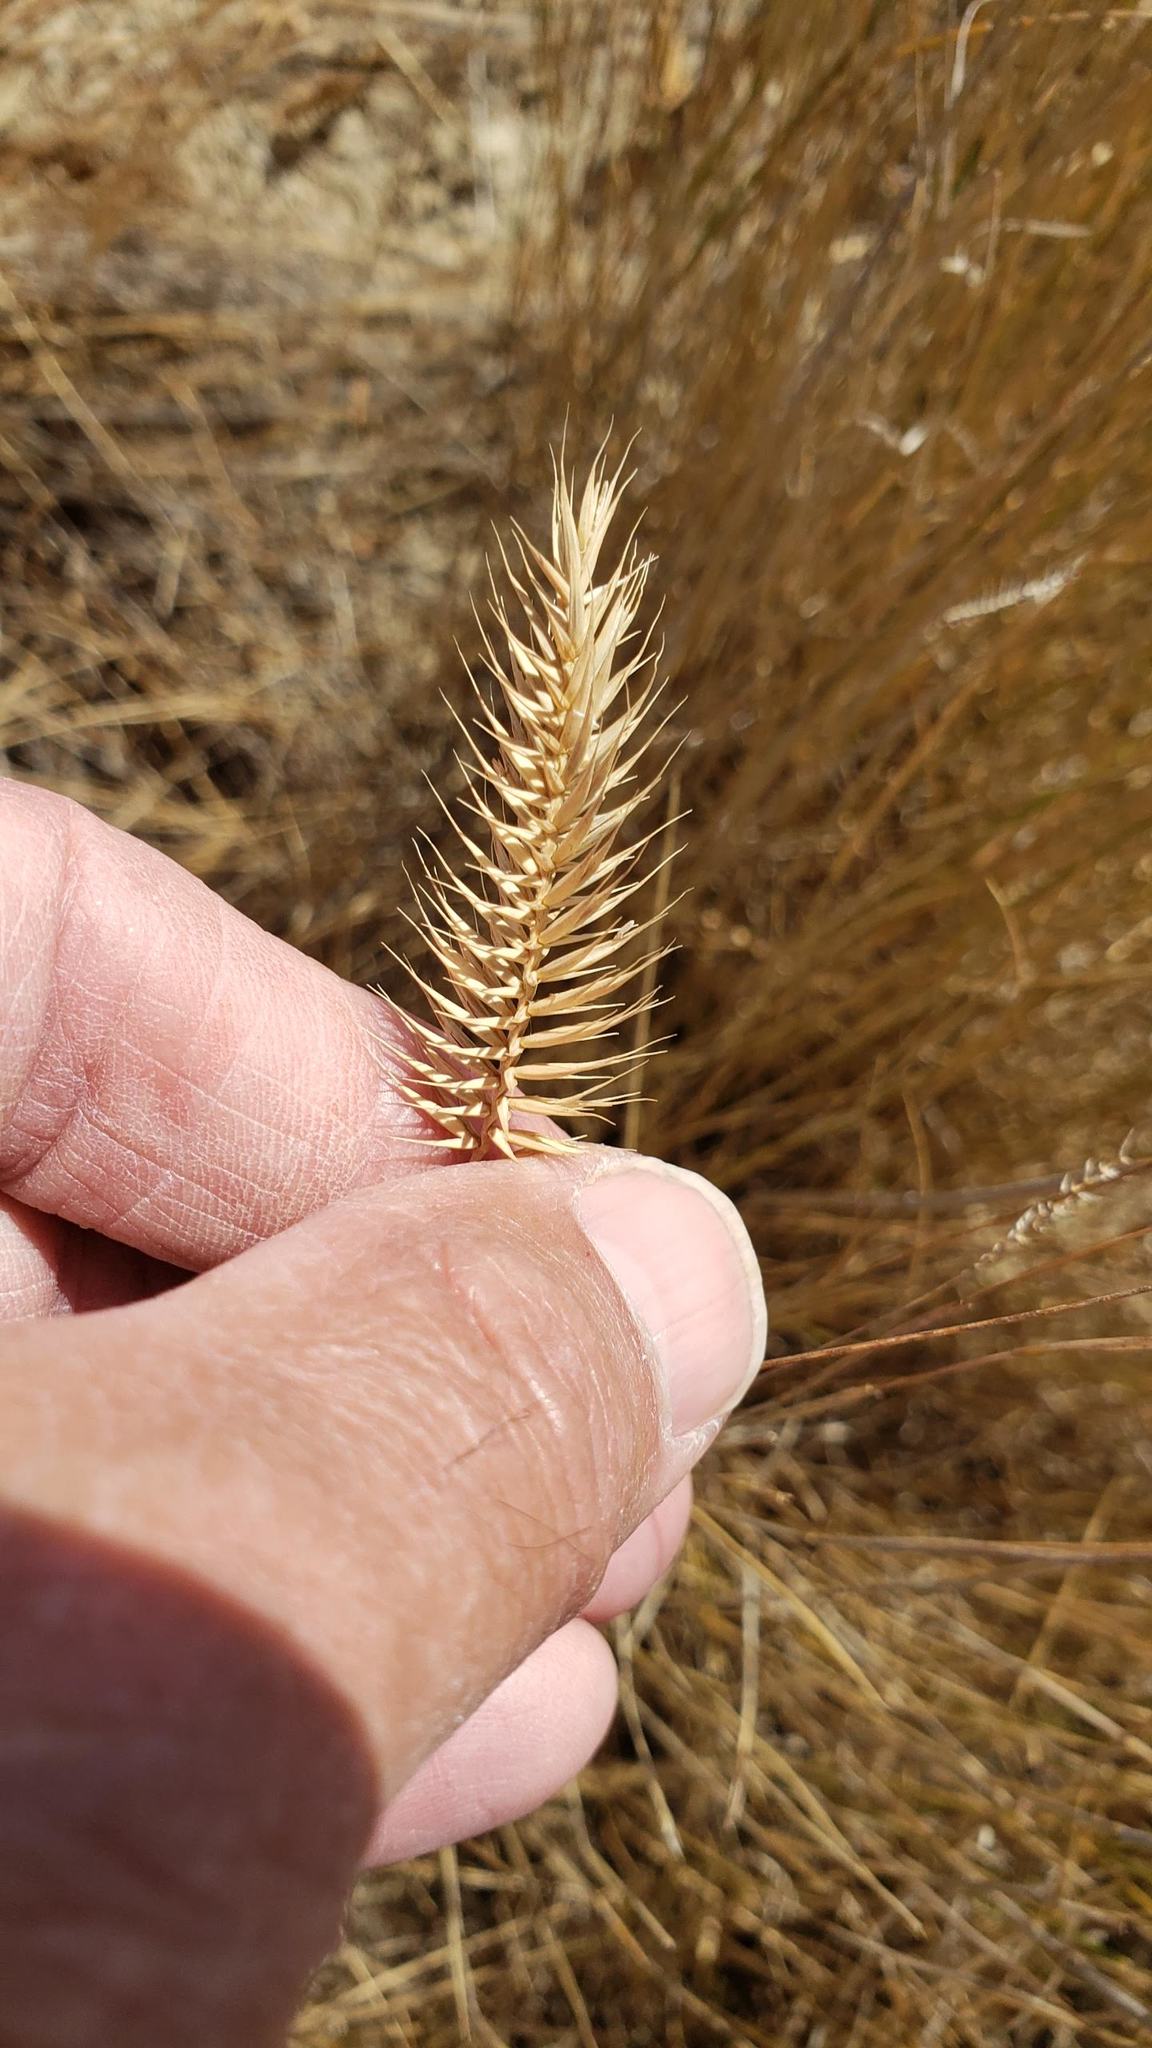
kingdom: Plantae
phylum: Tracheophyta
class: Liliopsida
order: Poales
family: Poaceae
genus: Agropyron
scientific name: Agropyron cristatum
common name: Crested wheatgrass
